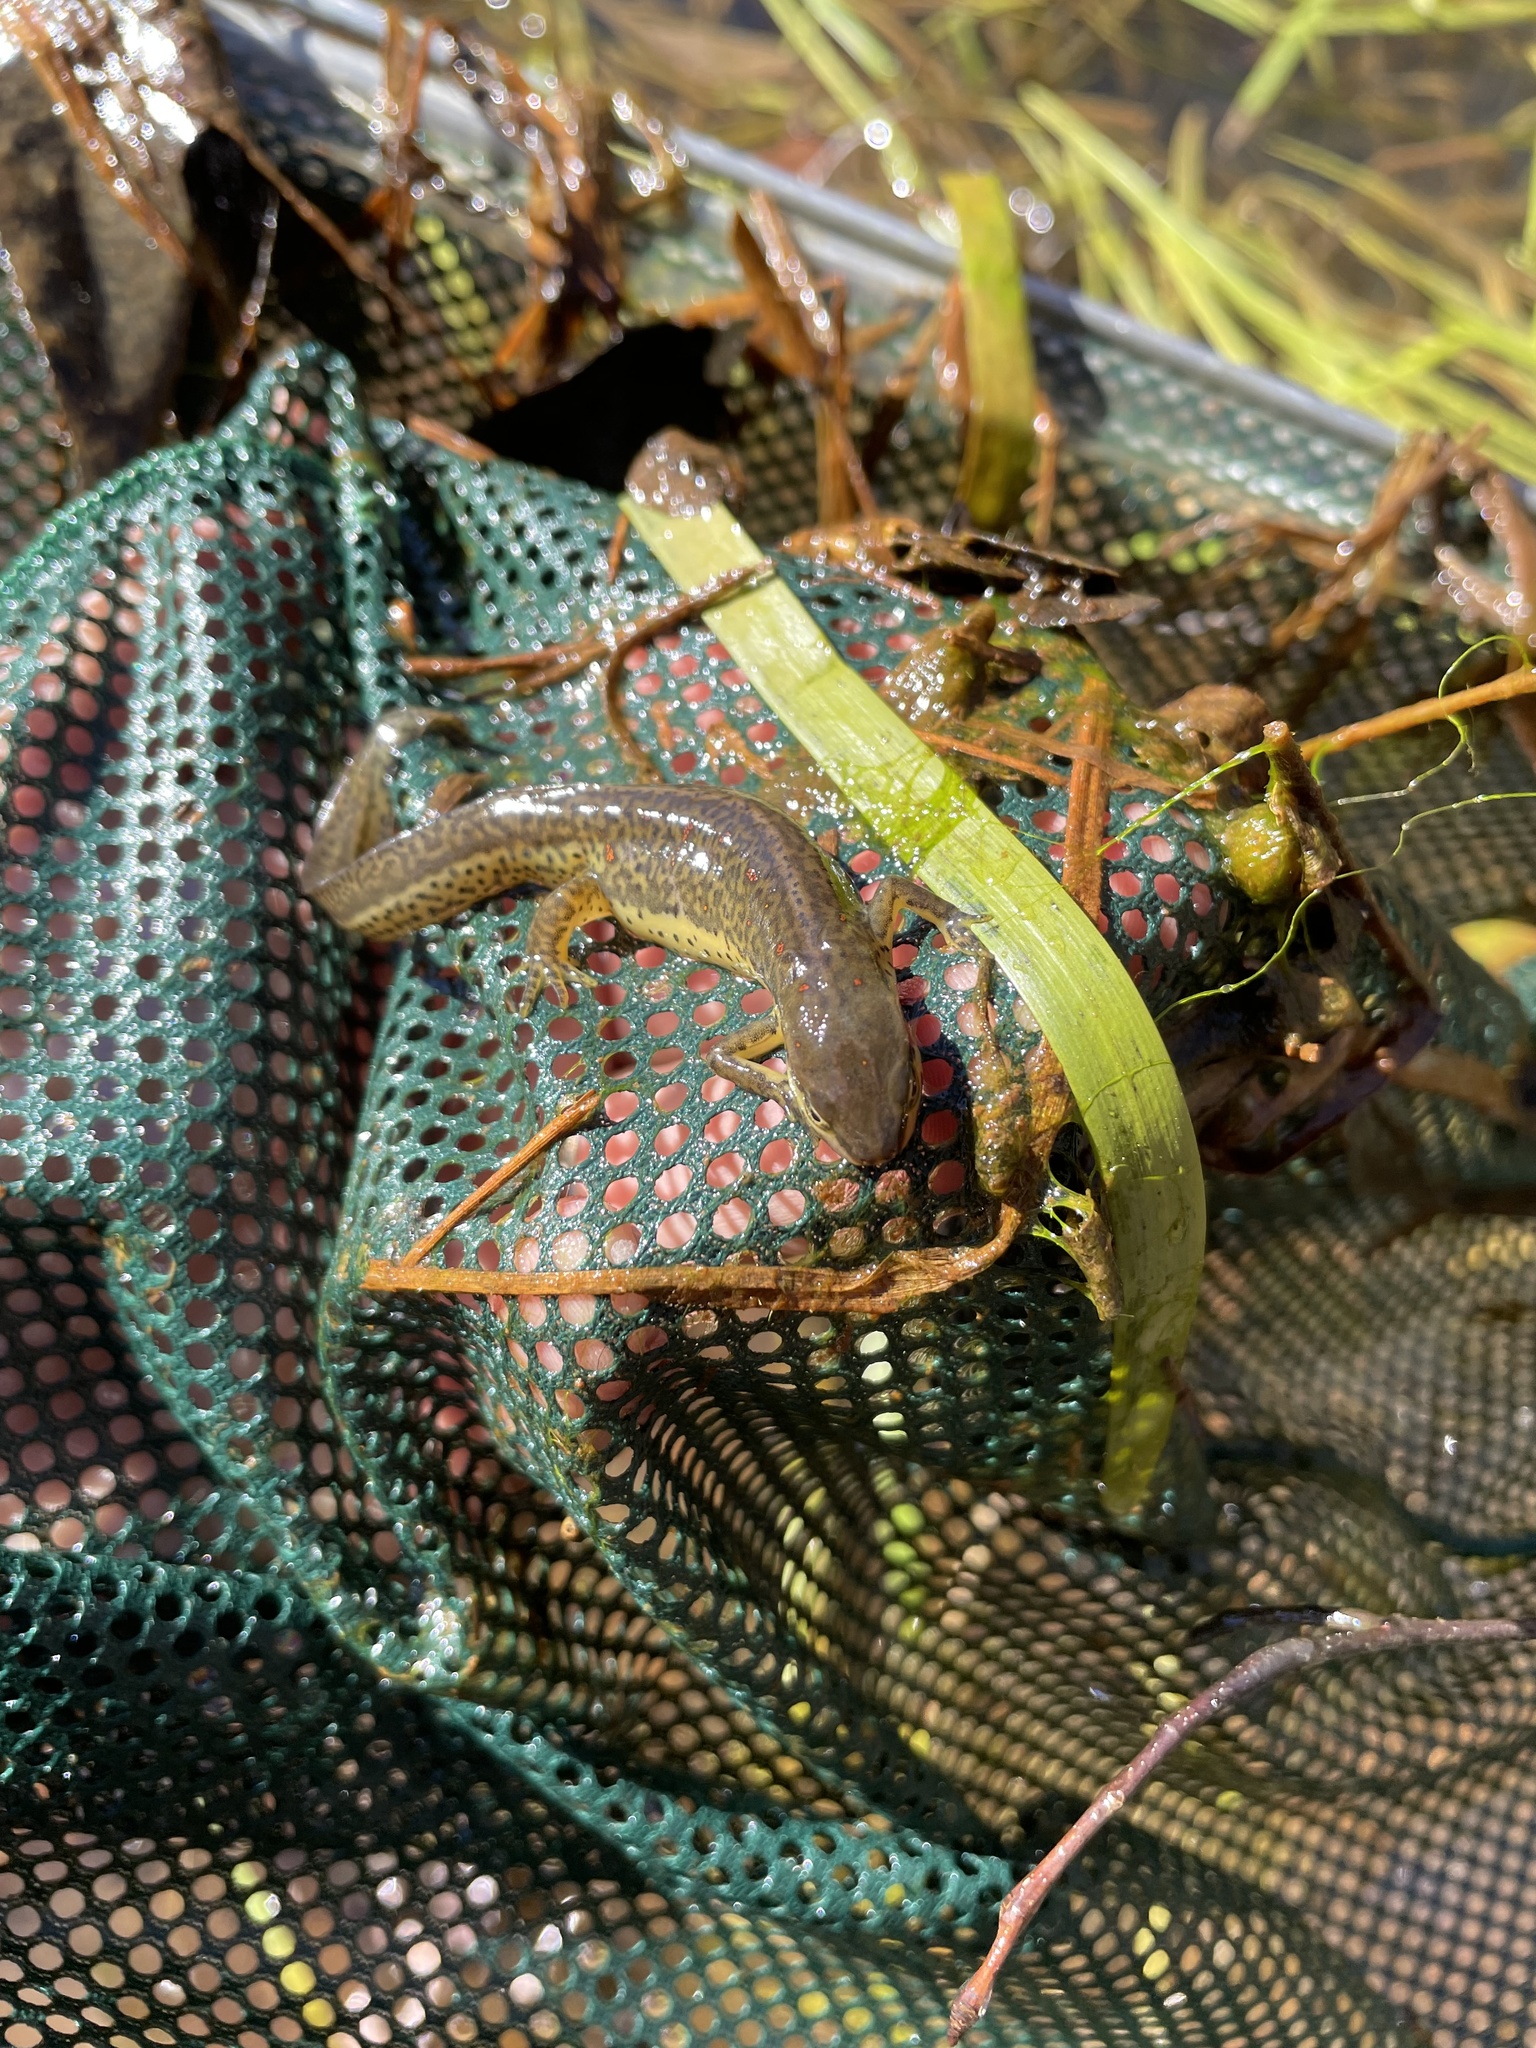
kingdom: Animalia
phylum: Chordata
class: Amphibia
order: Caudata
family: Salamandridae
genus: Notophthalmus
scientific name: Notophthalmus viridescens
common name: Eastern newt
